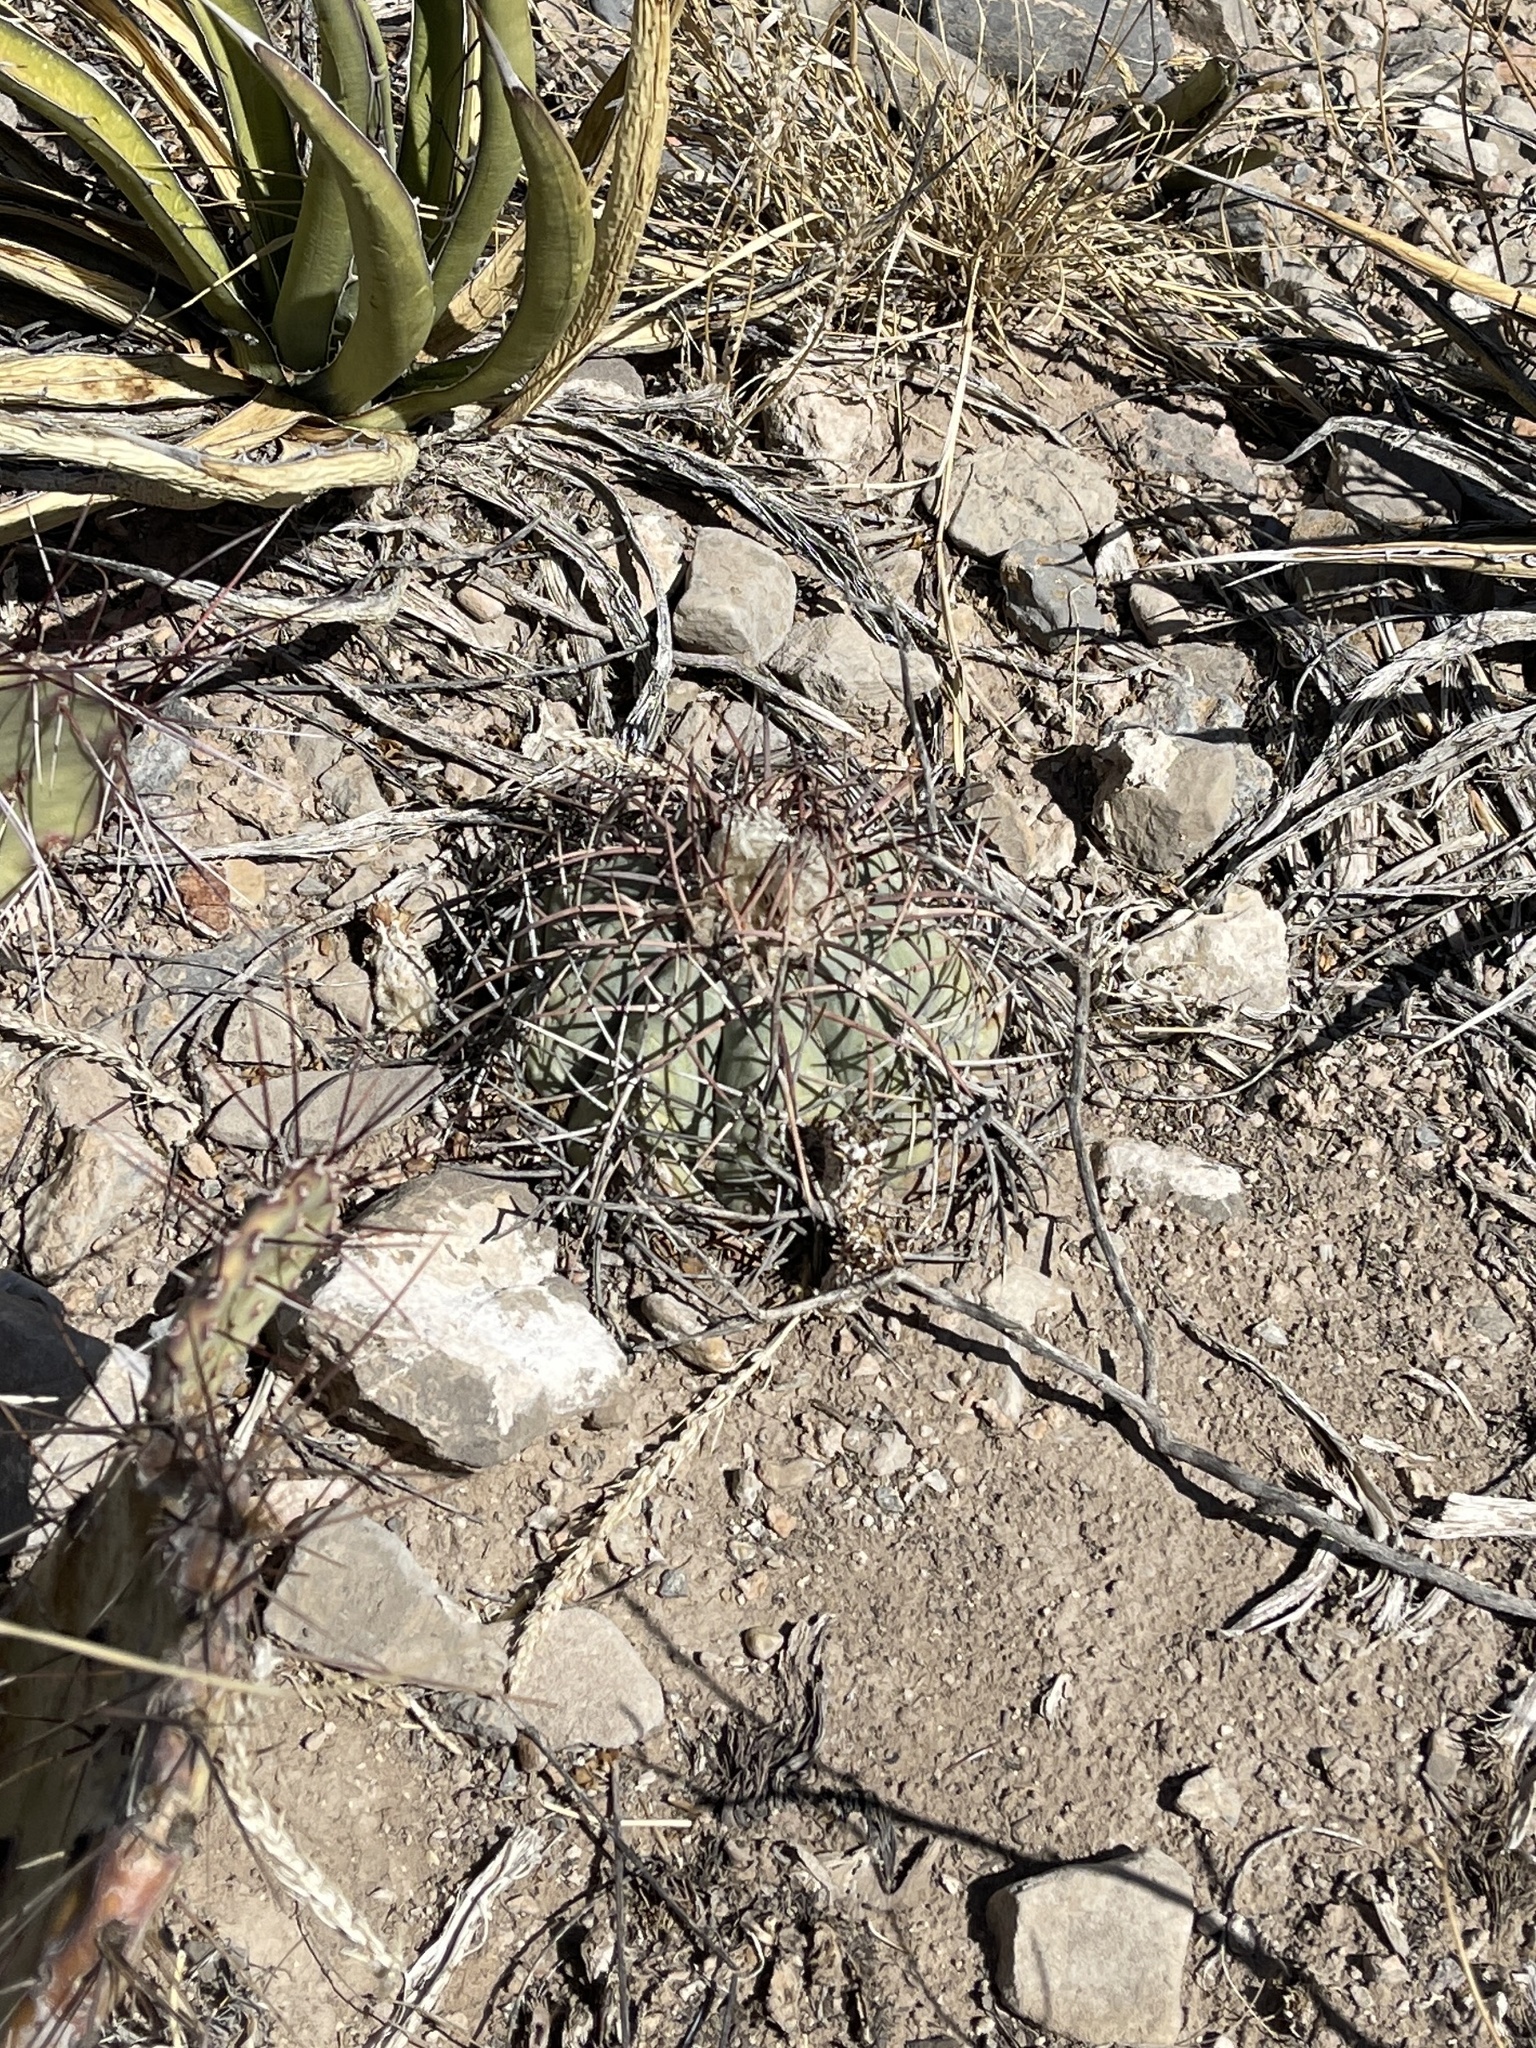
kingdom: Plantae
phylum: Tracheophyta
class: Magnoliopsida
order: Caryophyllales
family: Cactaceae
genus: Echinocactus
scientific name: Echinocactus horizonthalonius
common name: Devilshead
